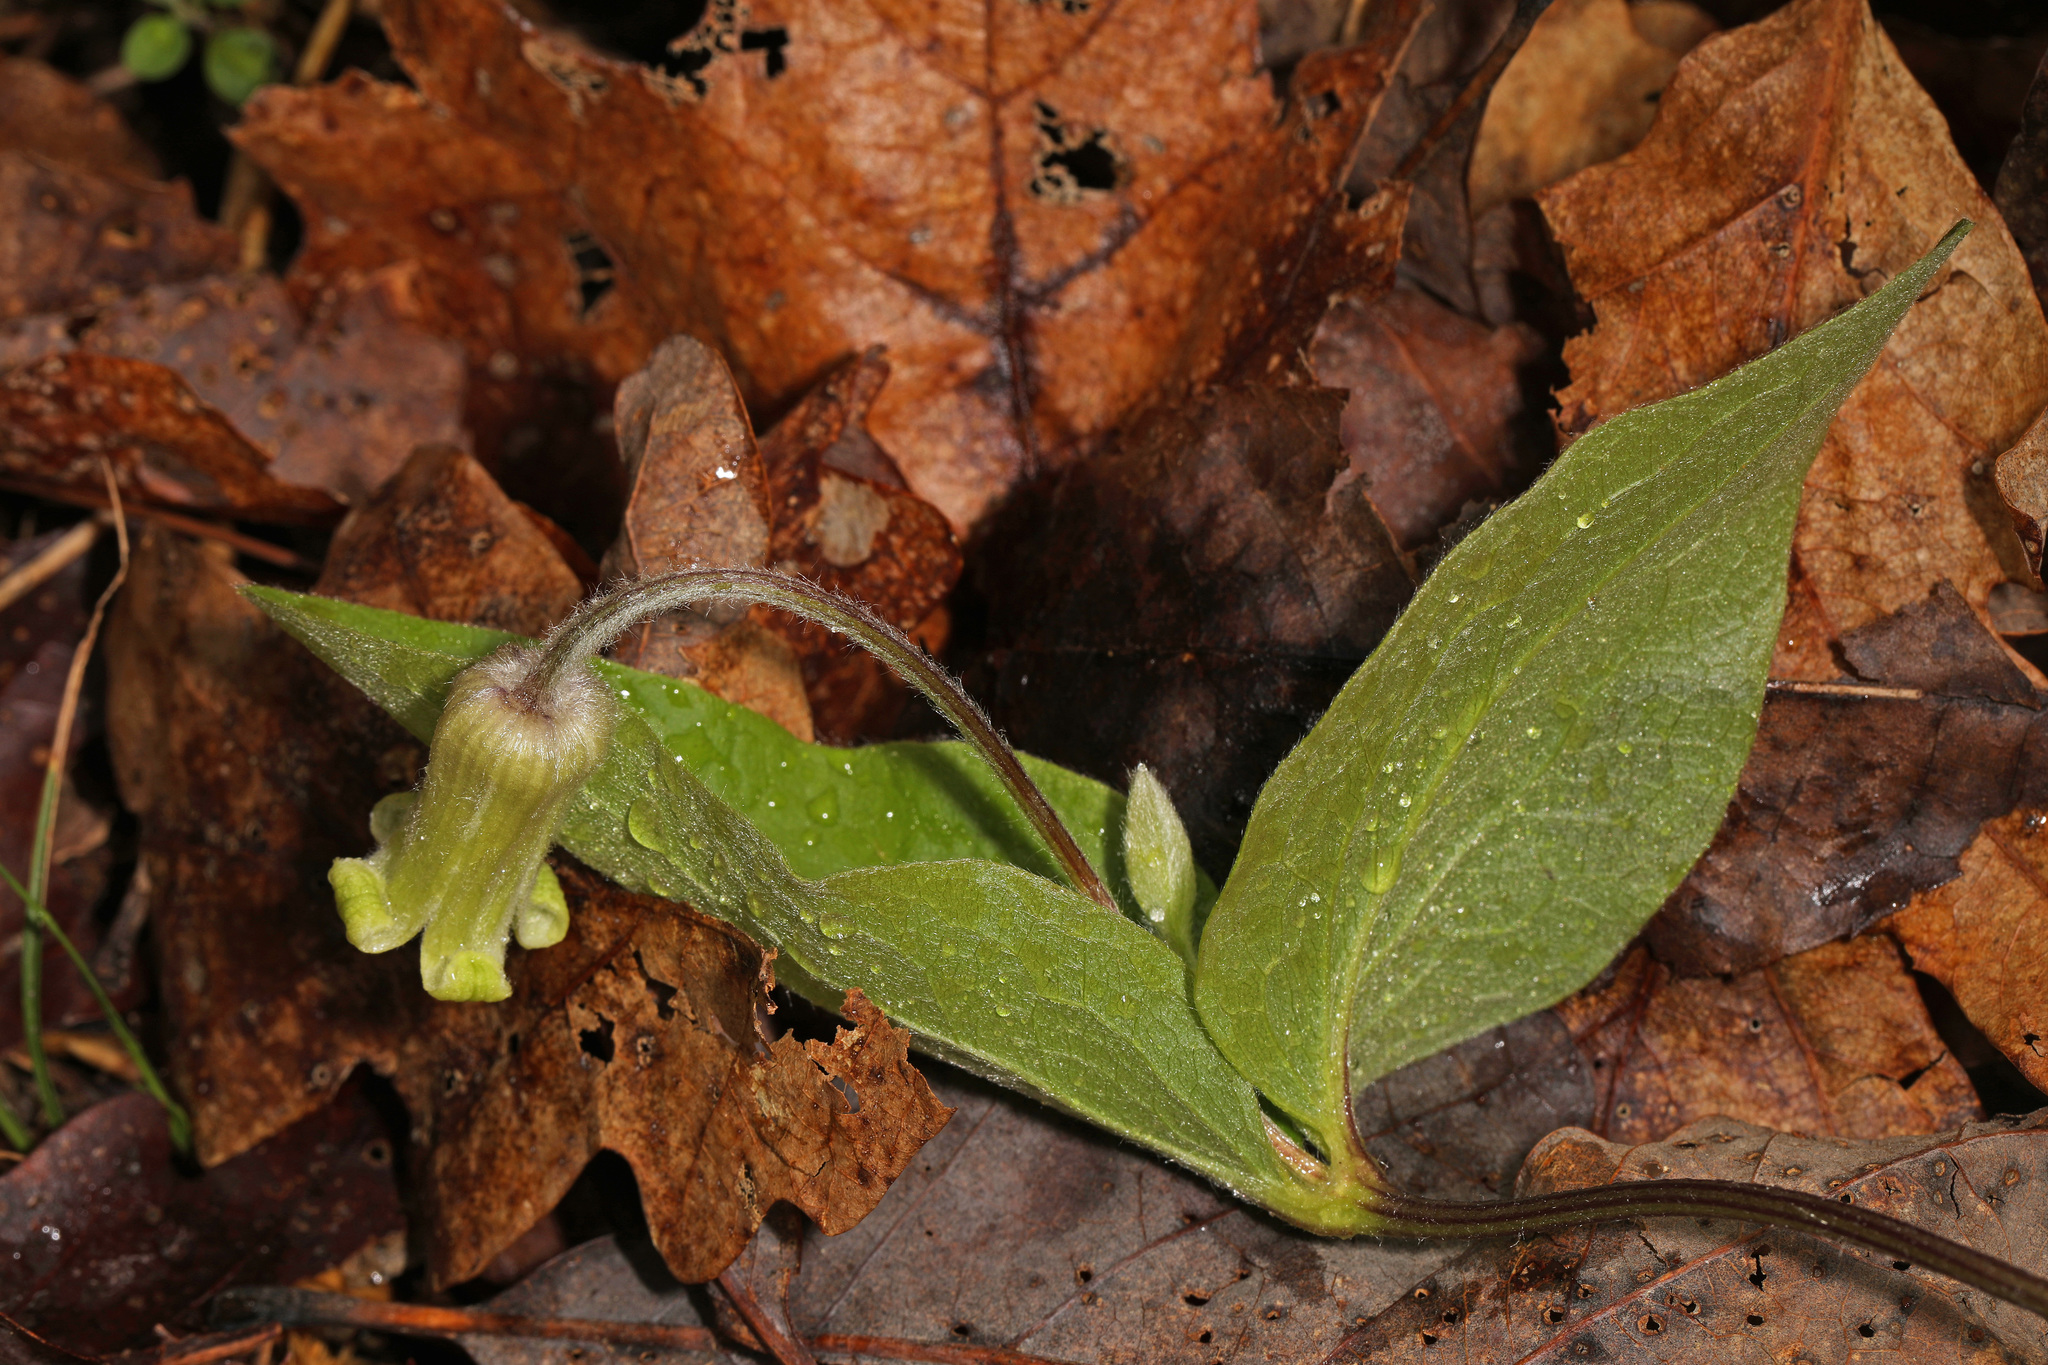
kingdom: Plantae
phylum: Tracheophyta
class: Magnoliopsida
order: Ranunculales
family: Ranunculaceae
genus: Clematis
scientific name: Clematis ochroleuca
